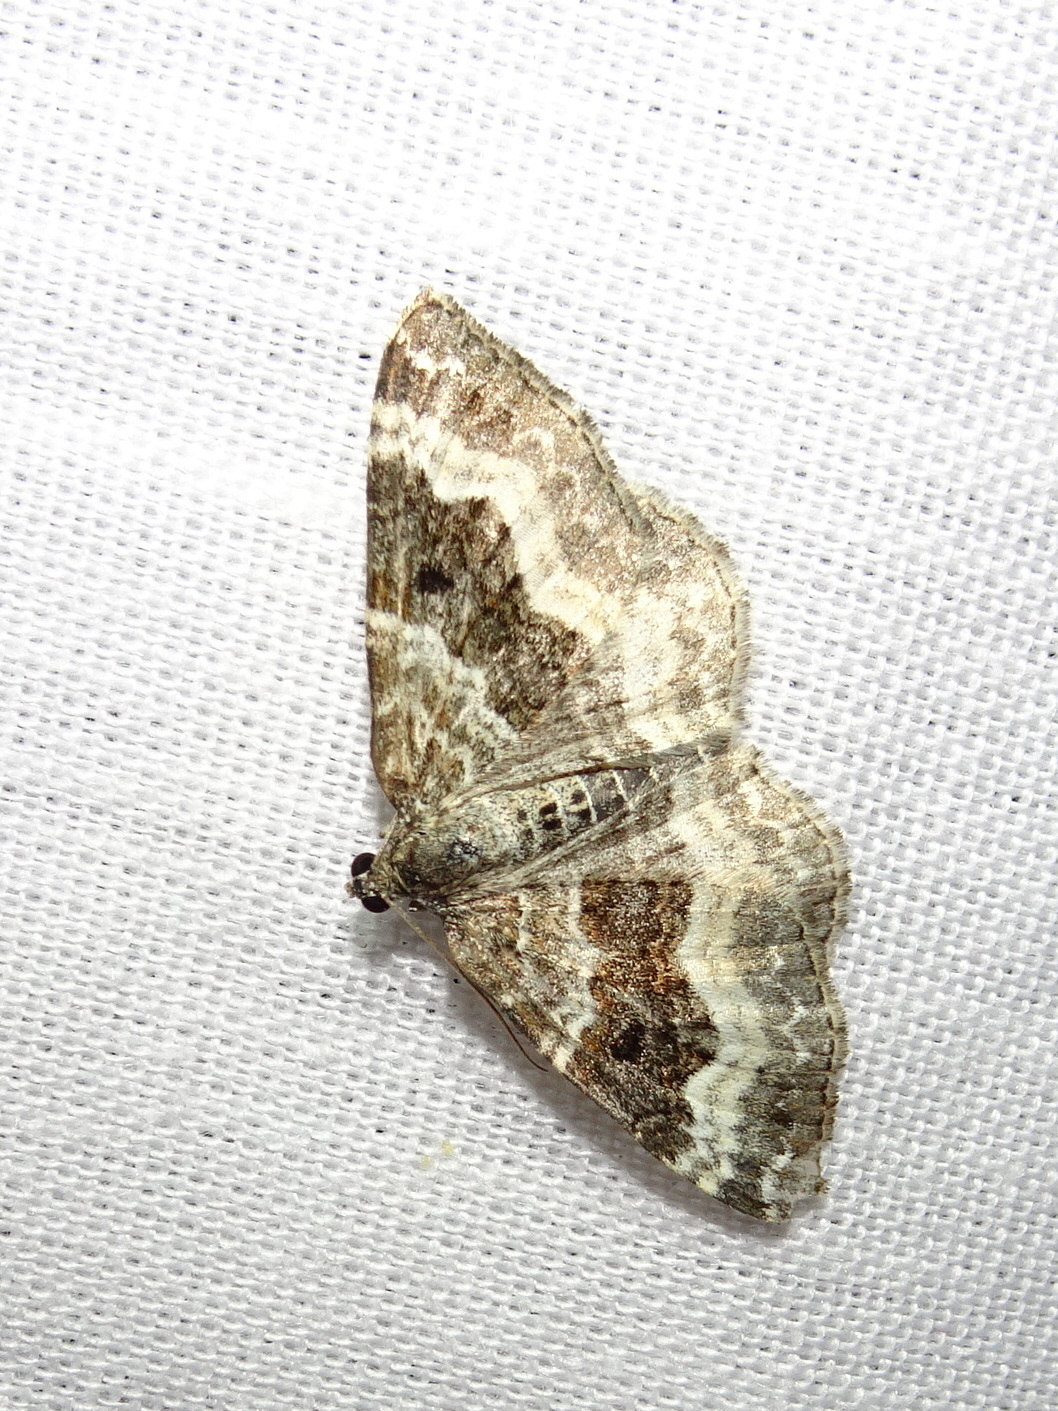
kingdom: Animalia
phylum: Arthropoda
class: Insecta
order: Lepidoptera
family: Geometridae
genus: Epirrhoe
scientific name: Epirrhoe alternata
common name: Common carpet
